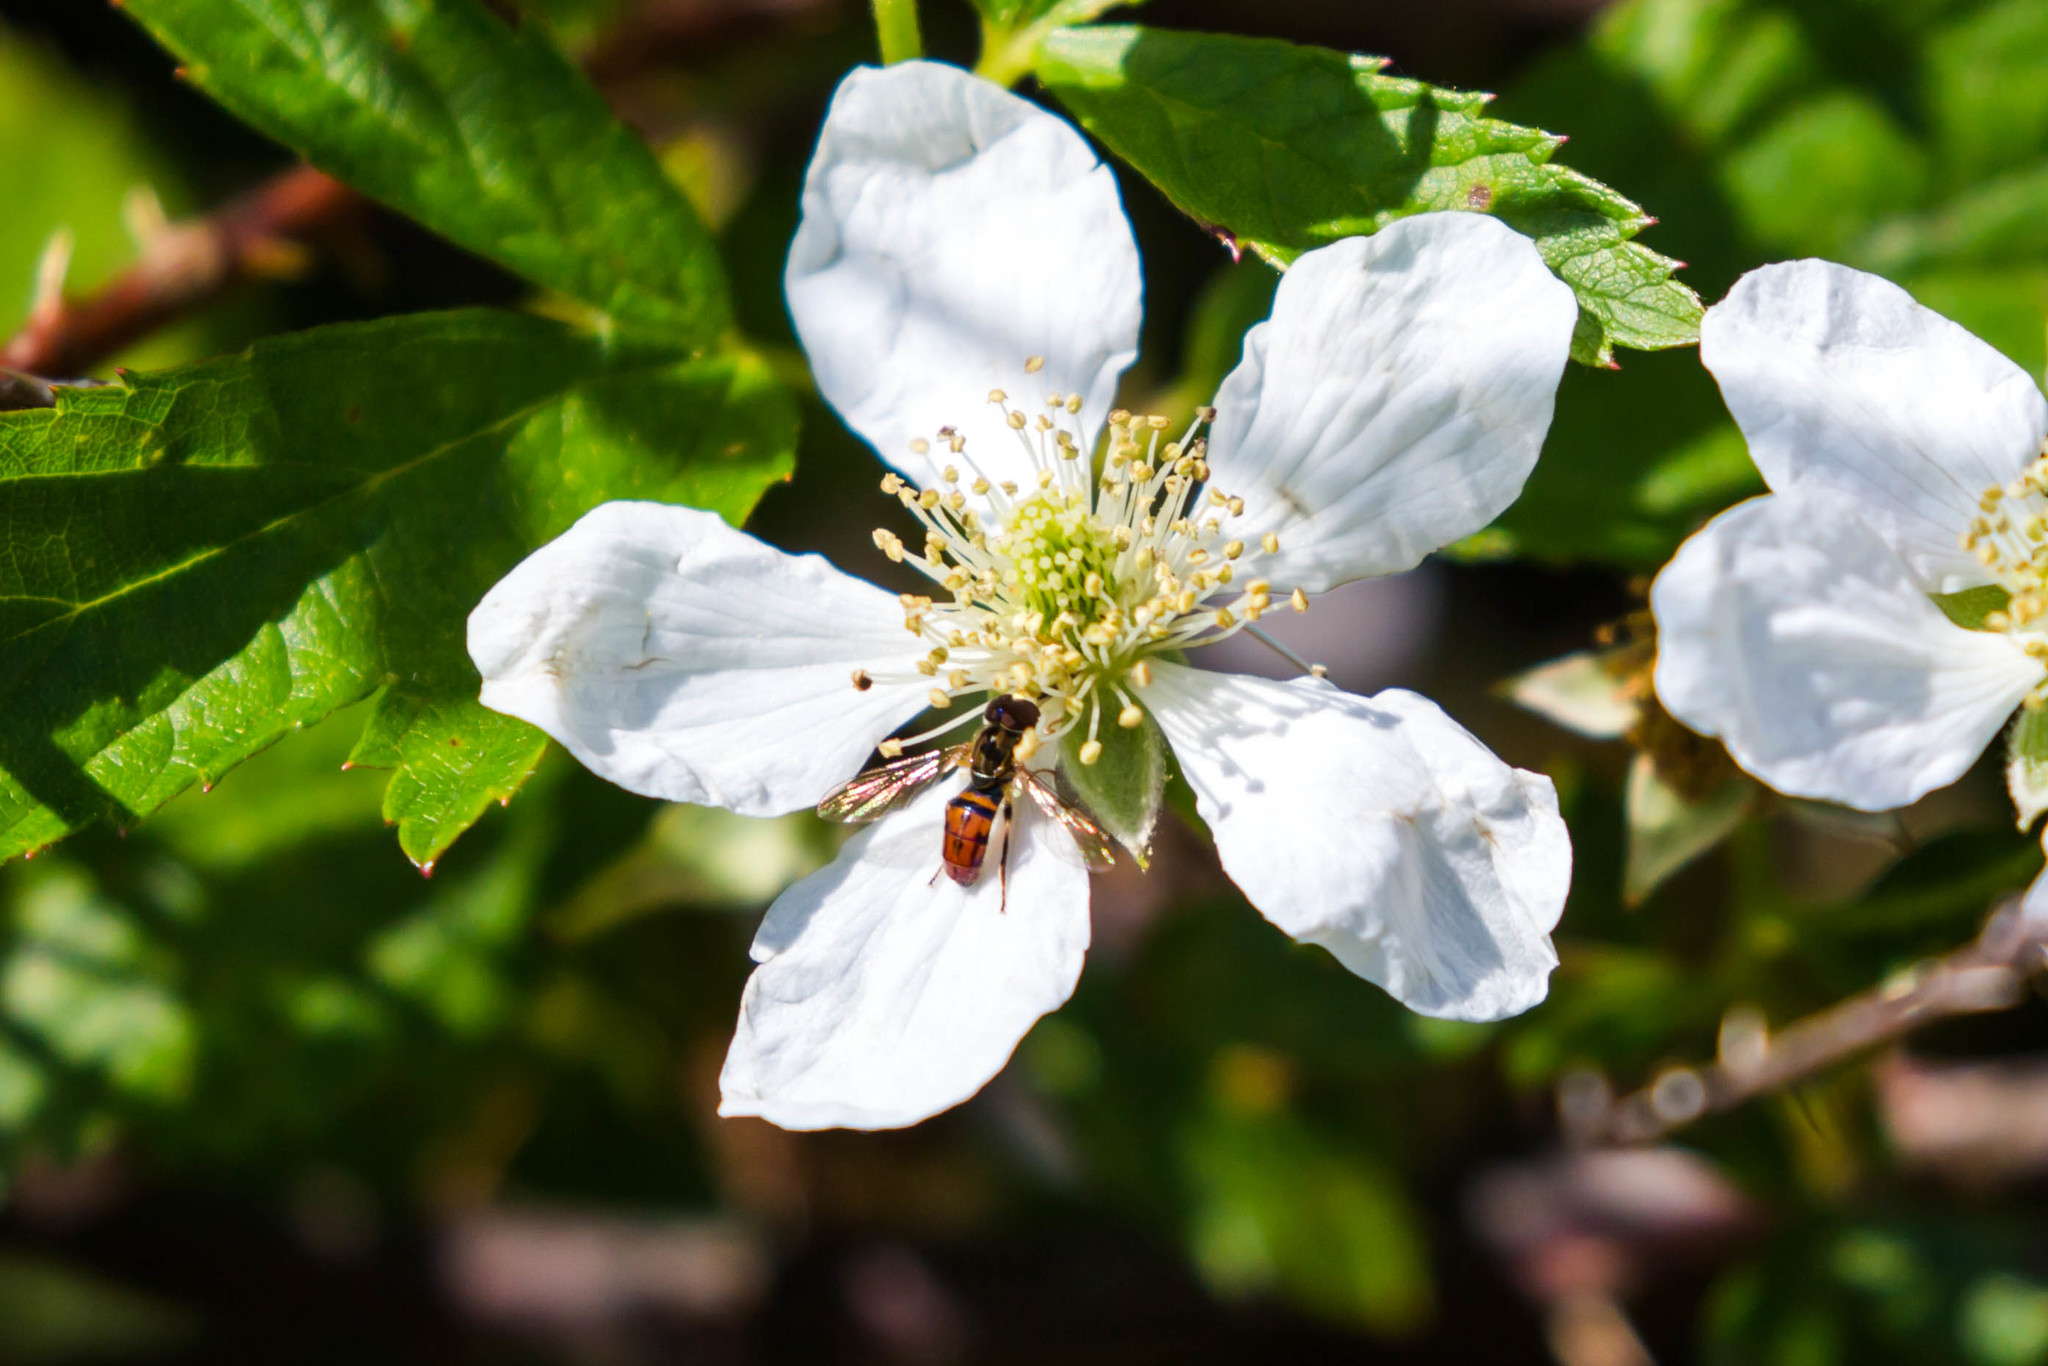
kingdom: Animalia
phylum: Arthropoda
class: Insecta
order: Diptera
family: Syrphidae
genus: Toxomerus
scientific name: Toxomerus boscii
